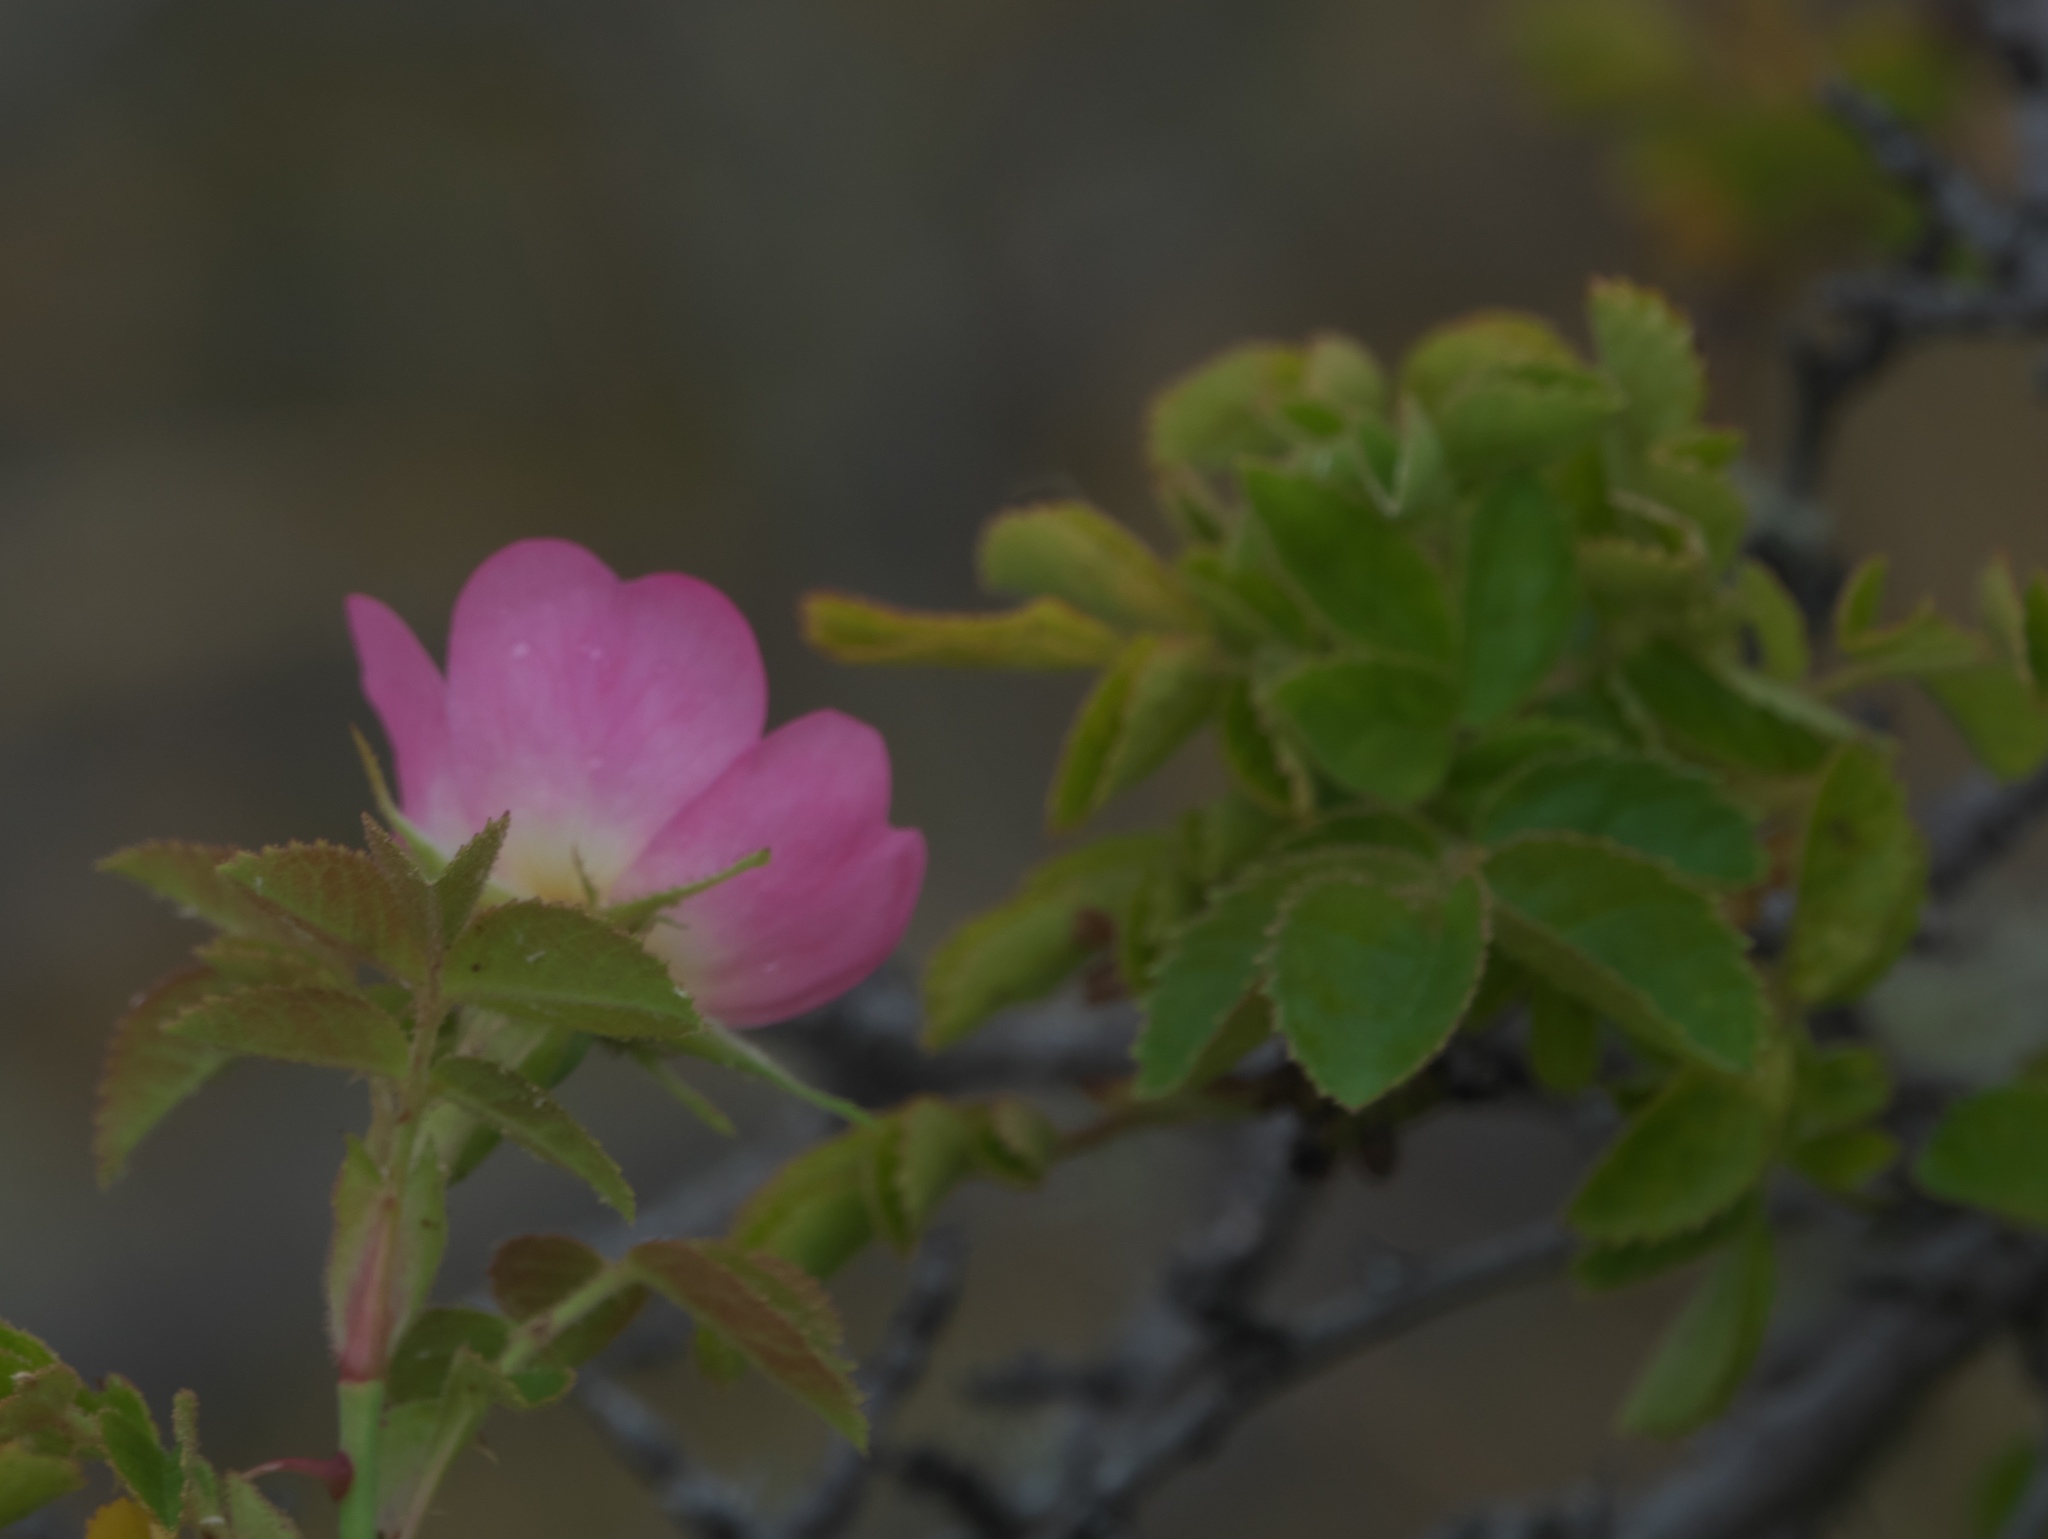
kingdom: Plantae
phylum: Tracheophyta
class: Magnoliopsida
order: Rosales
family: Rosaceae
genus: Rosa
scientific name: Rosa rubiginosa
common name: Sweet-briar
